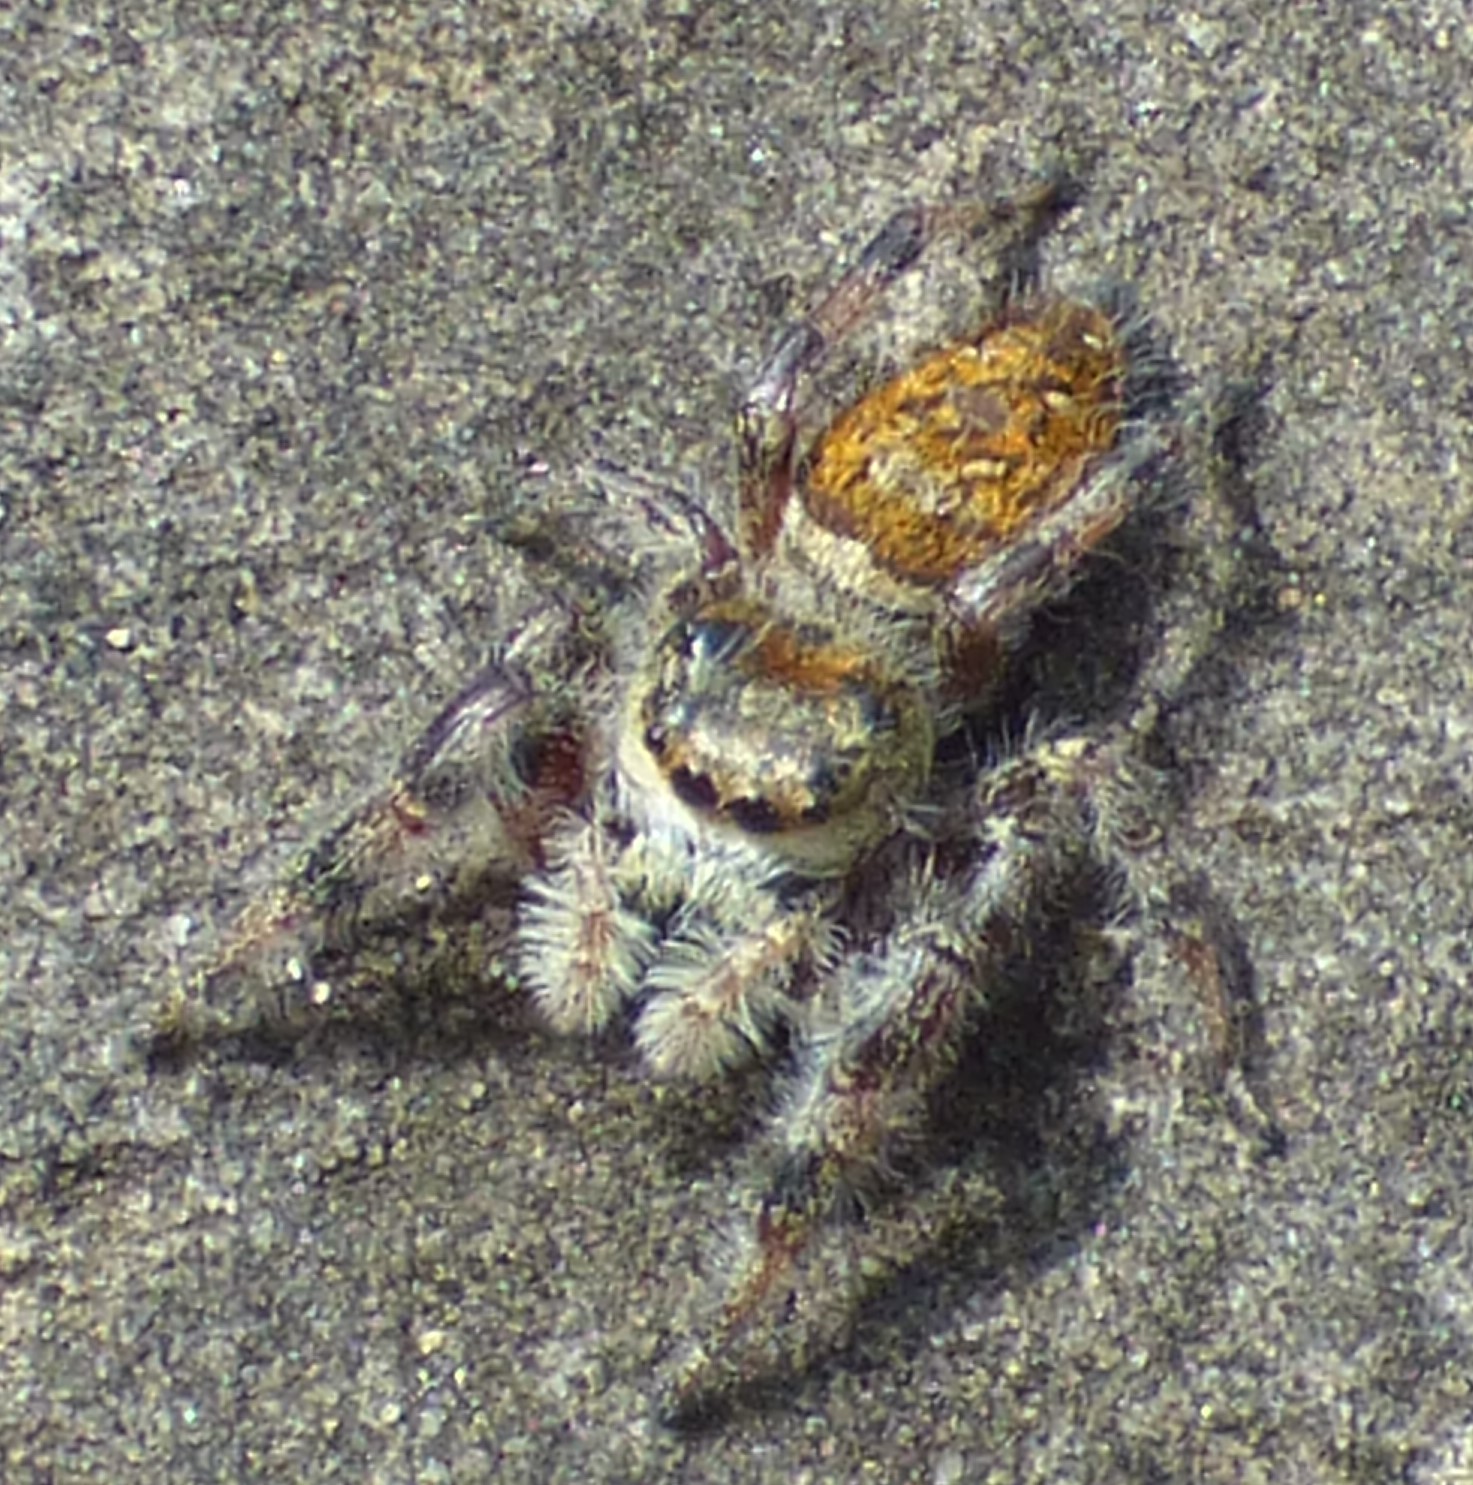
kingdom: Animalia
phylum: Arthropoda
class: Arachnida
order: Araneae
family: Salticidae
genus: Phidippus
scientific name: Phidippus clarus
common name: Brilliant jumping spider
